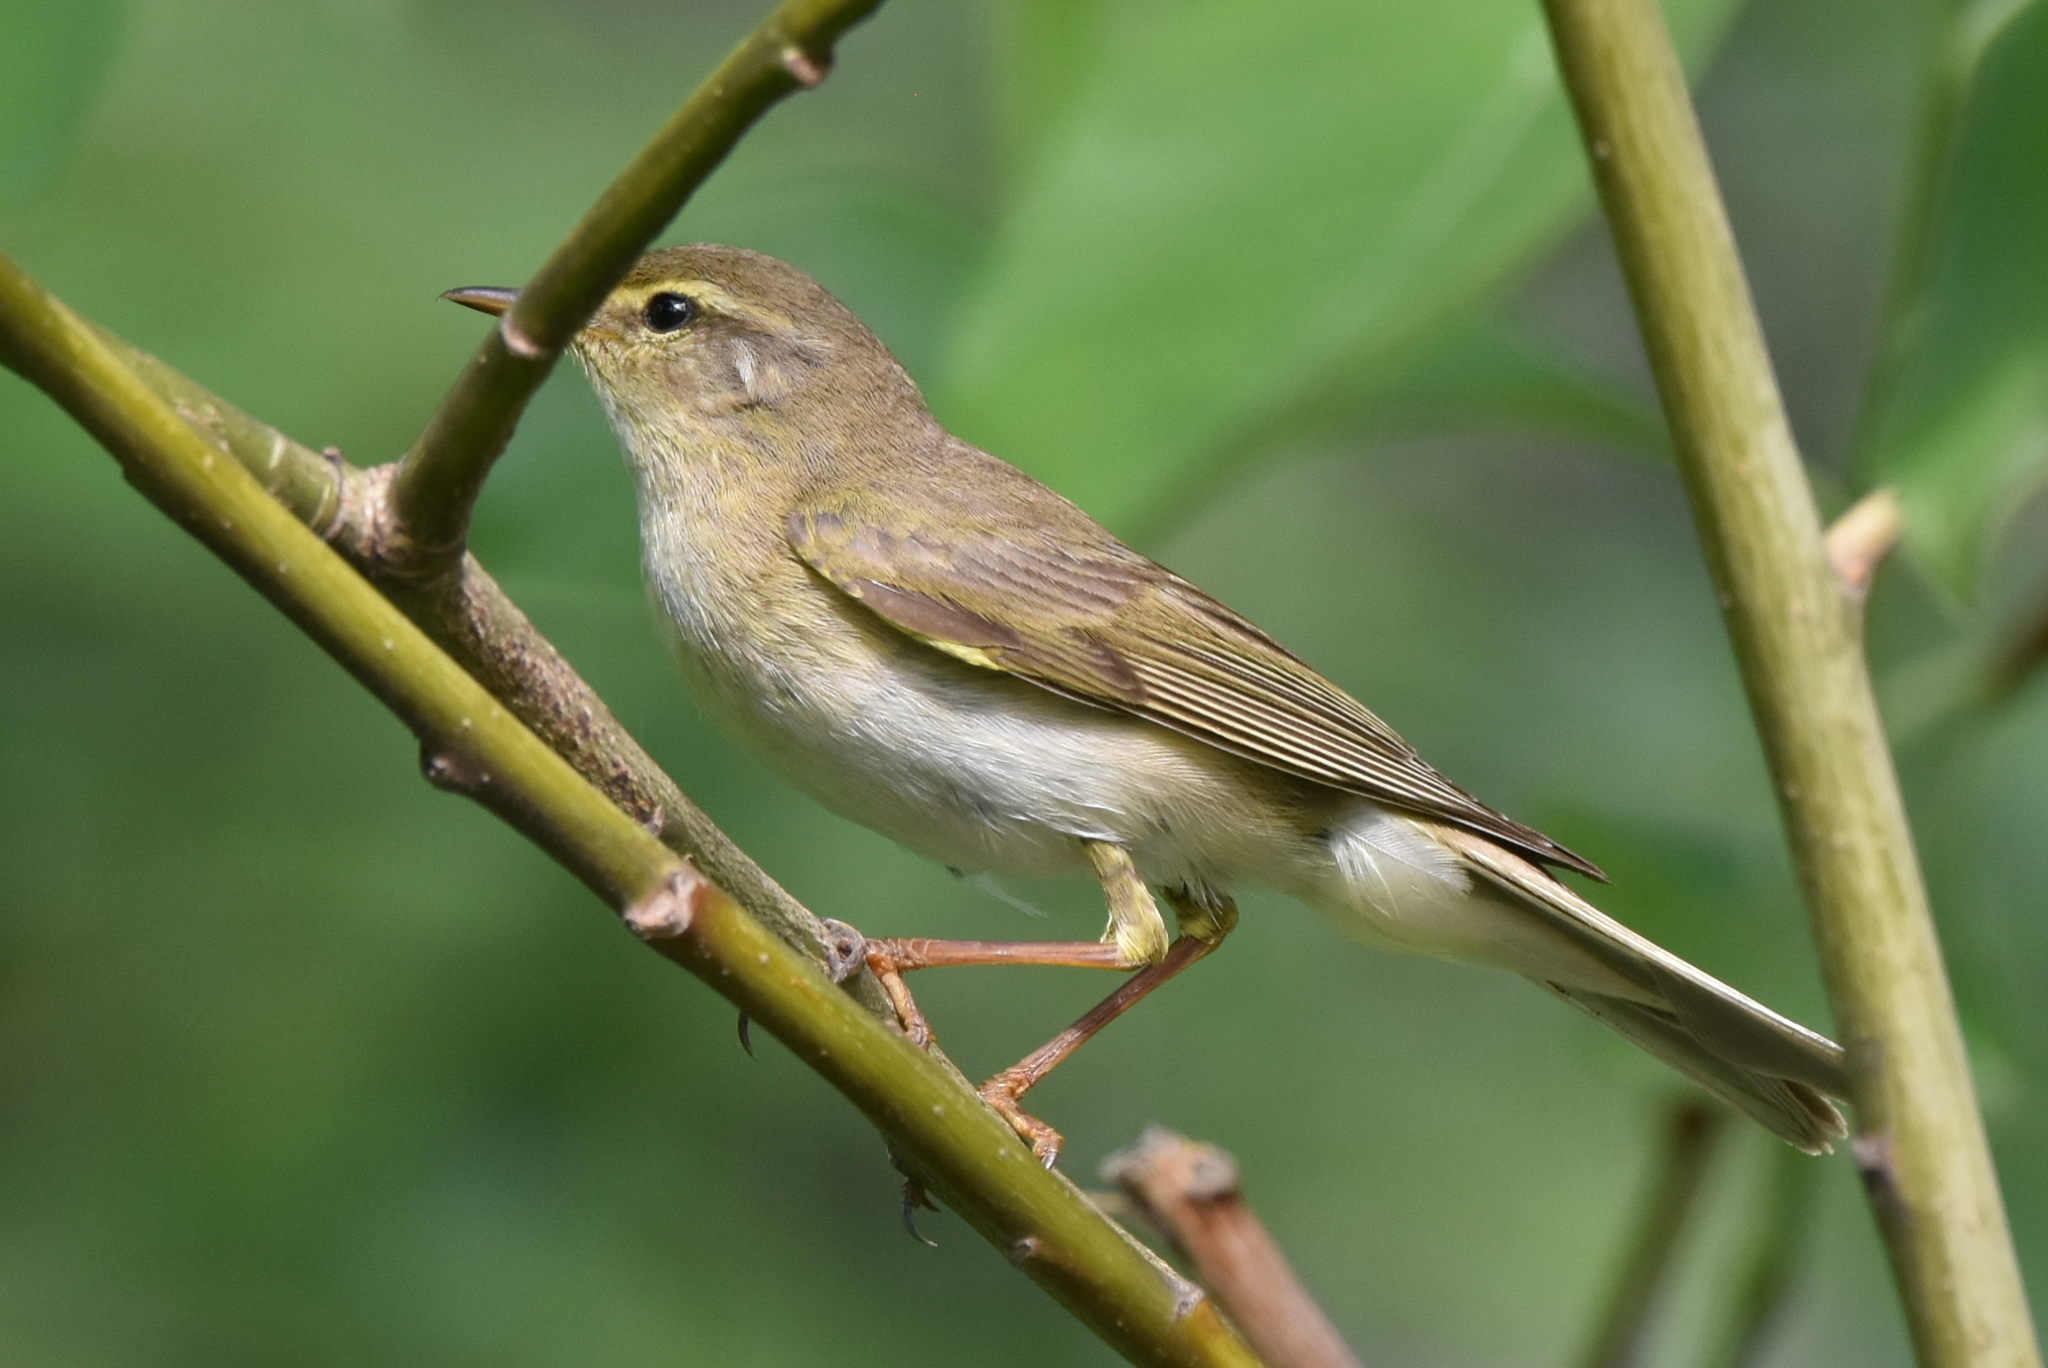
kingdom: Animalia
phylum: Chordata
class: Aves
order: Passeriformes
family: Phylloscopidae
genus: Phylloscopus
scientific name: Phylloscopus trochilus
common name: Willow warbler
